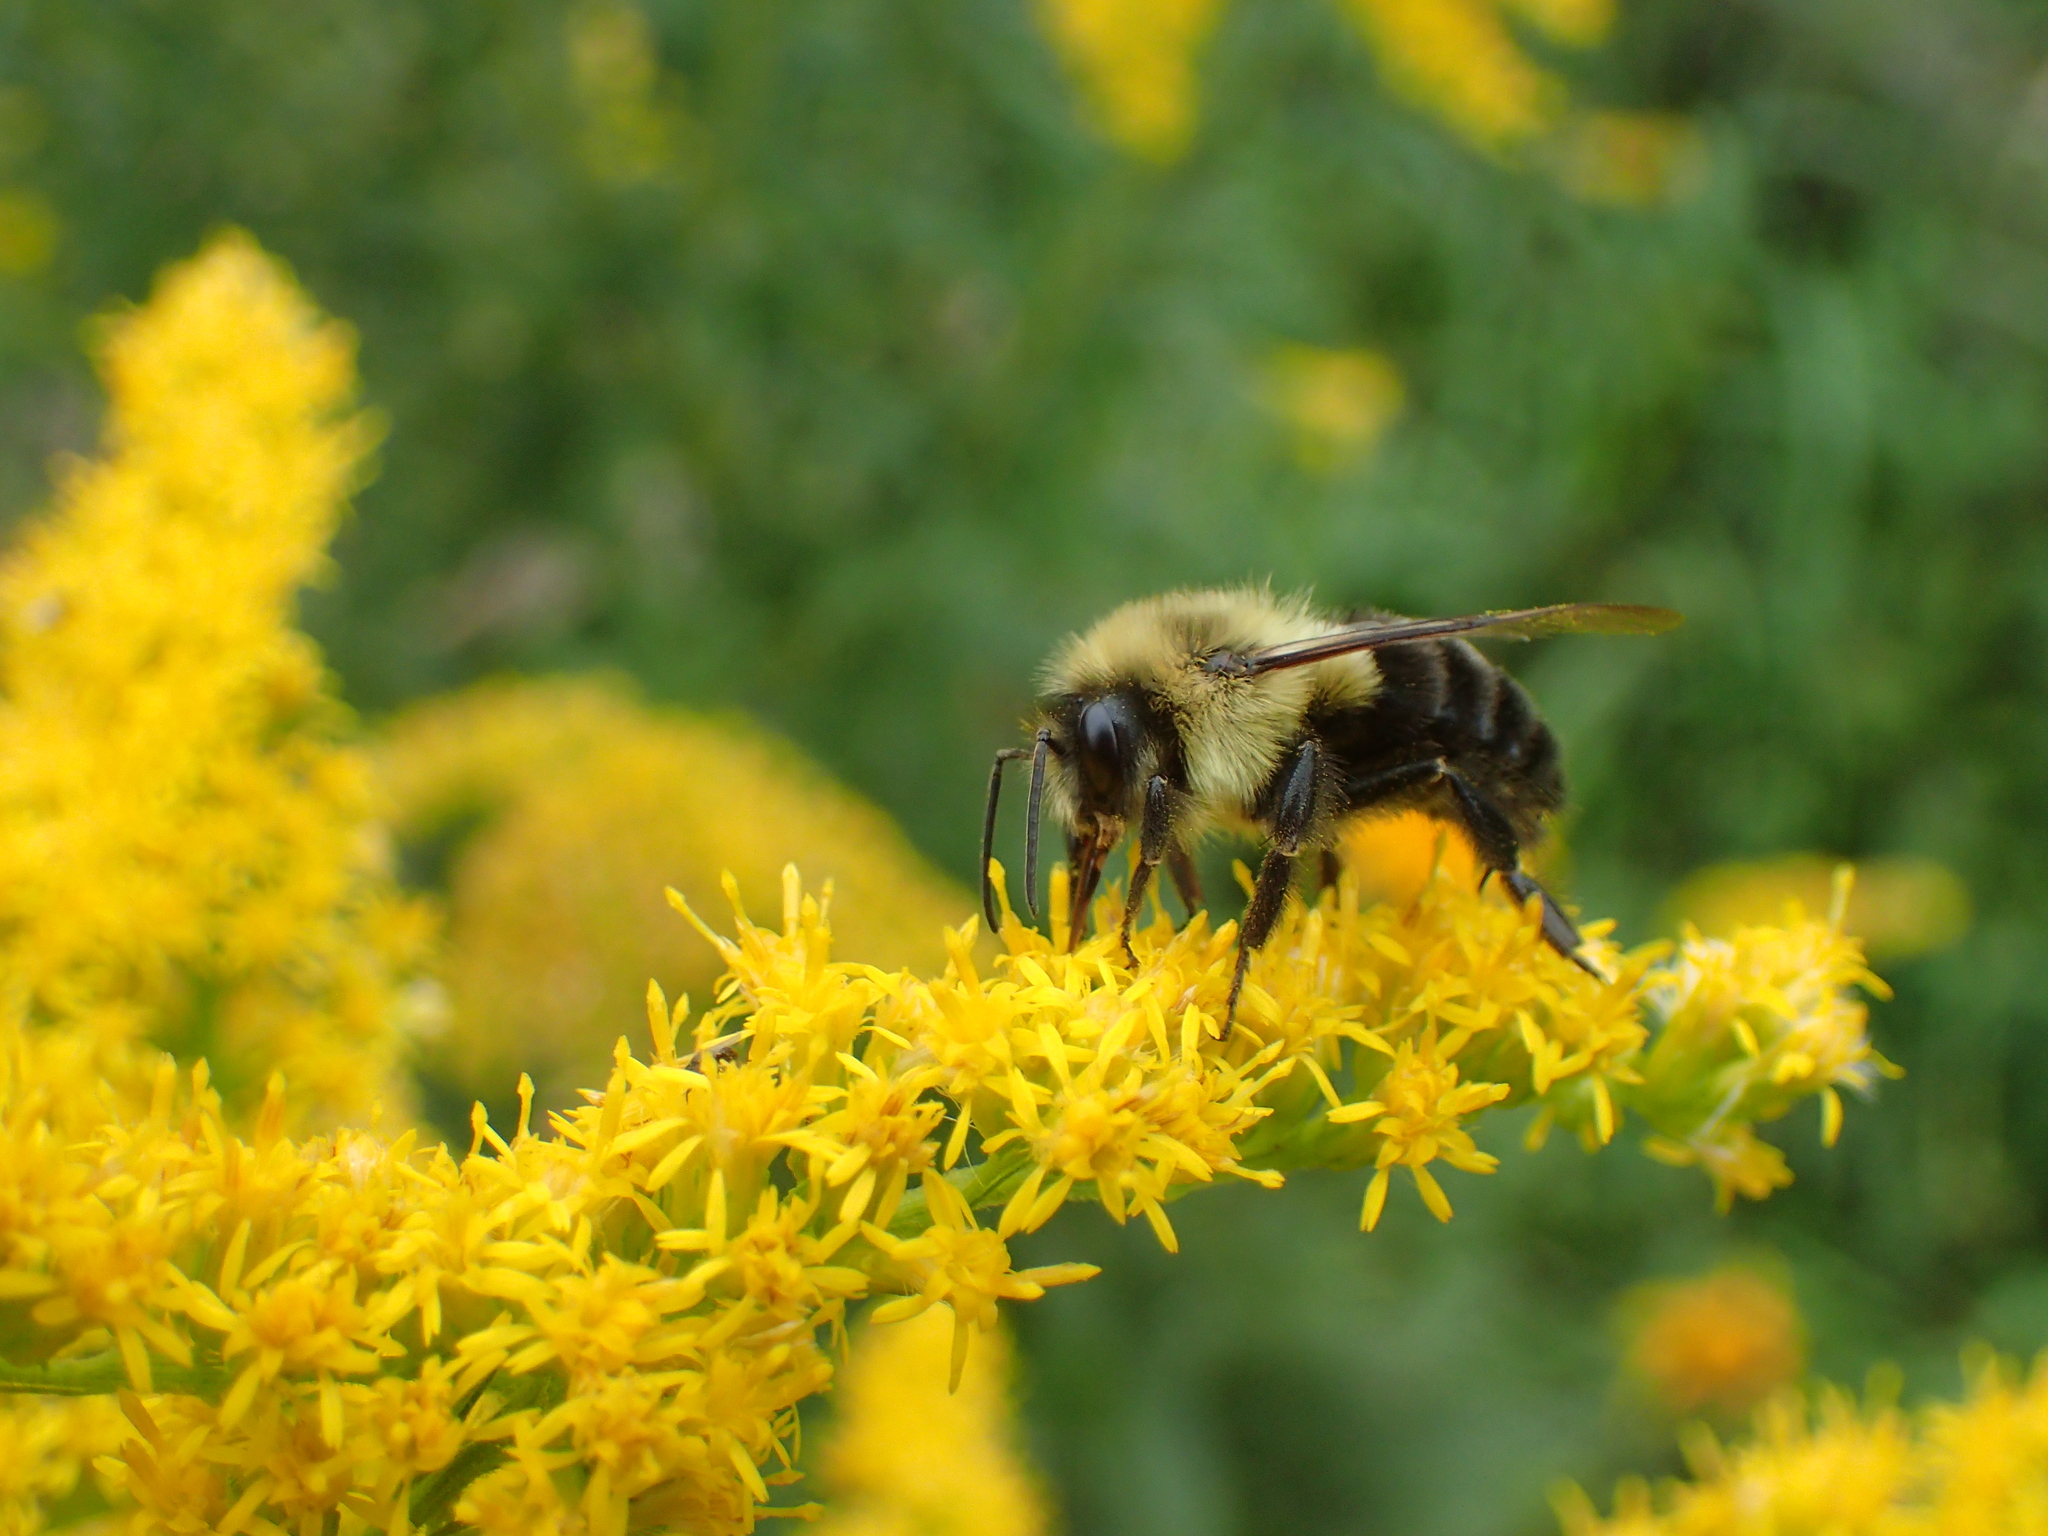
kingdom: Animalia
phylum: Arthropoda
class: Insecta
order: Hymenoptera
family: Apidae
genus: Bombus
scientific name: Bombus impatiens
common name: Common eastern bumble bee
